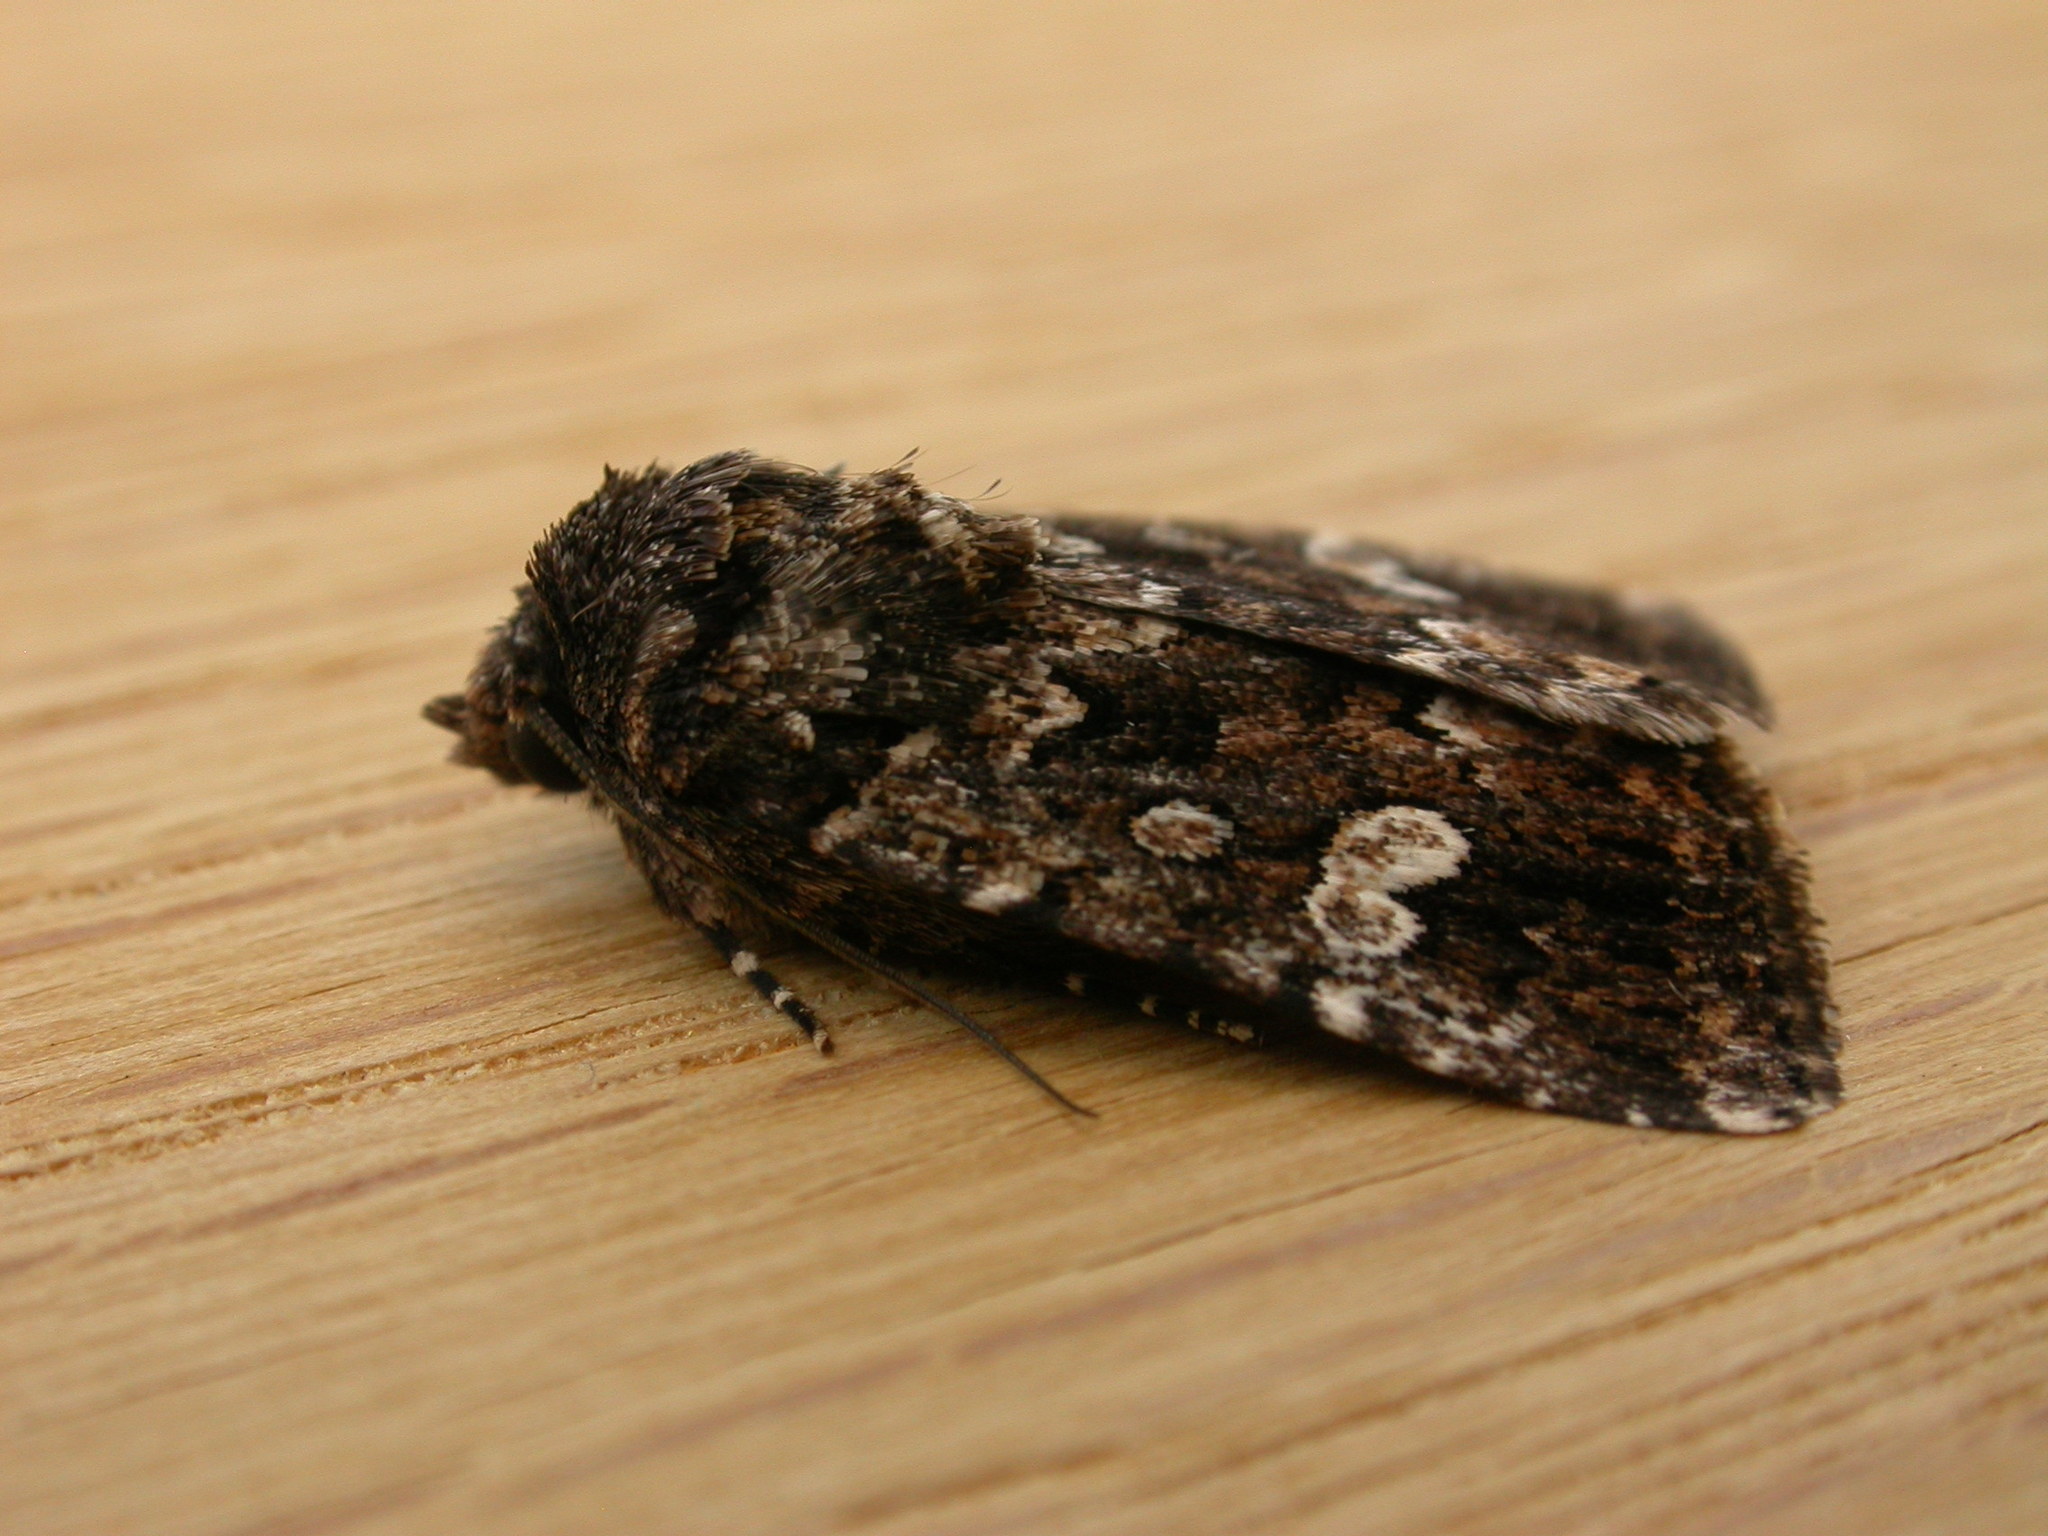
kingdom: Animalia
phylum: Arthropoda
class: Insecta
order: Lepidoptera
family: Noctuidae
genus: Ectopatria
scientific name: Ectopatria horologa
